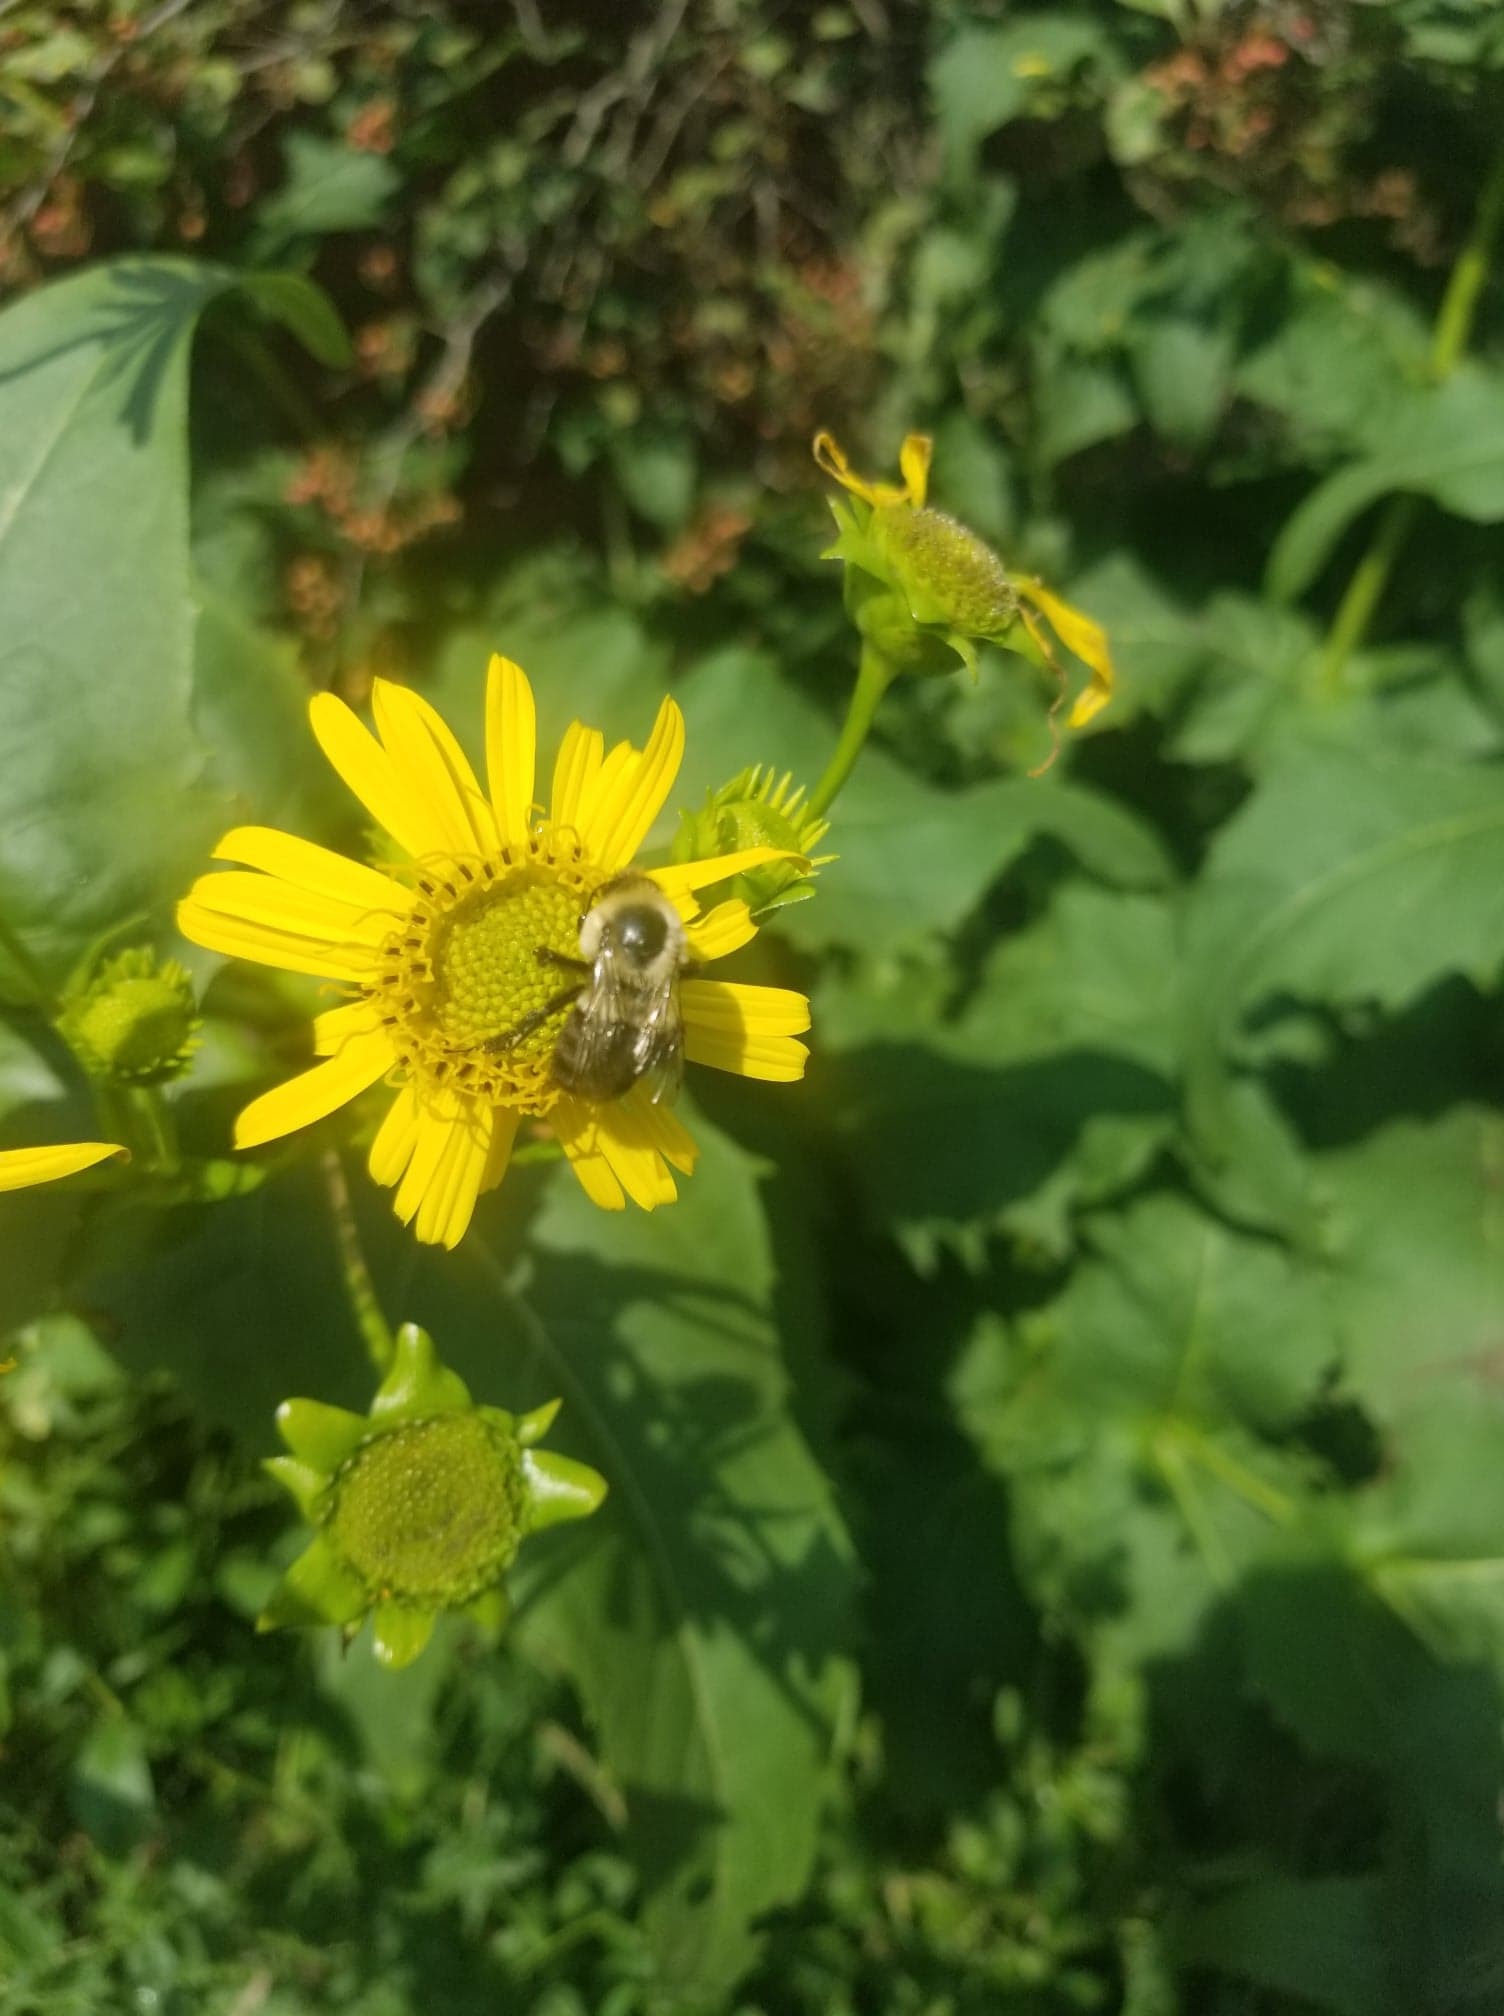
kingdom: Animalia
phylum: Arthropoda
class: Insecta
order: Hymenoptera
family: Apidae
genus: Bombus
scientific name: Bombus impatiens
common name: Common eastern bumble bee
